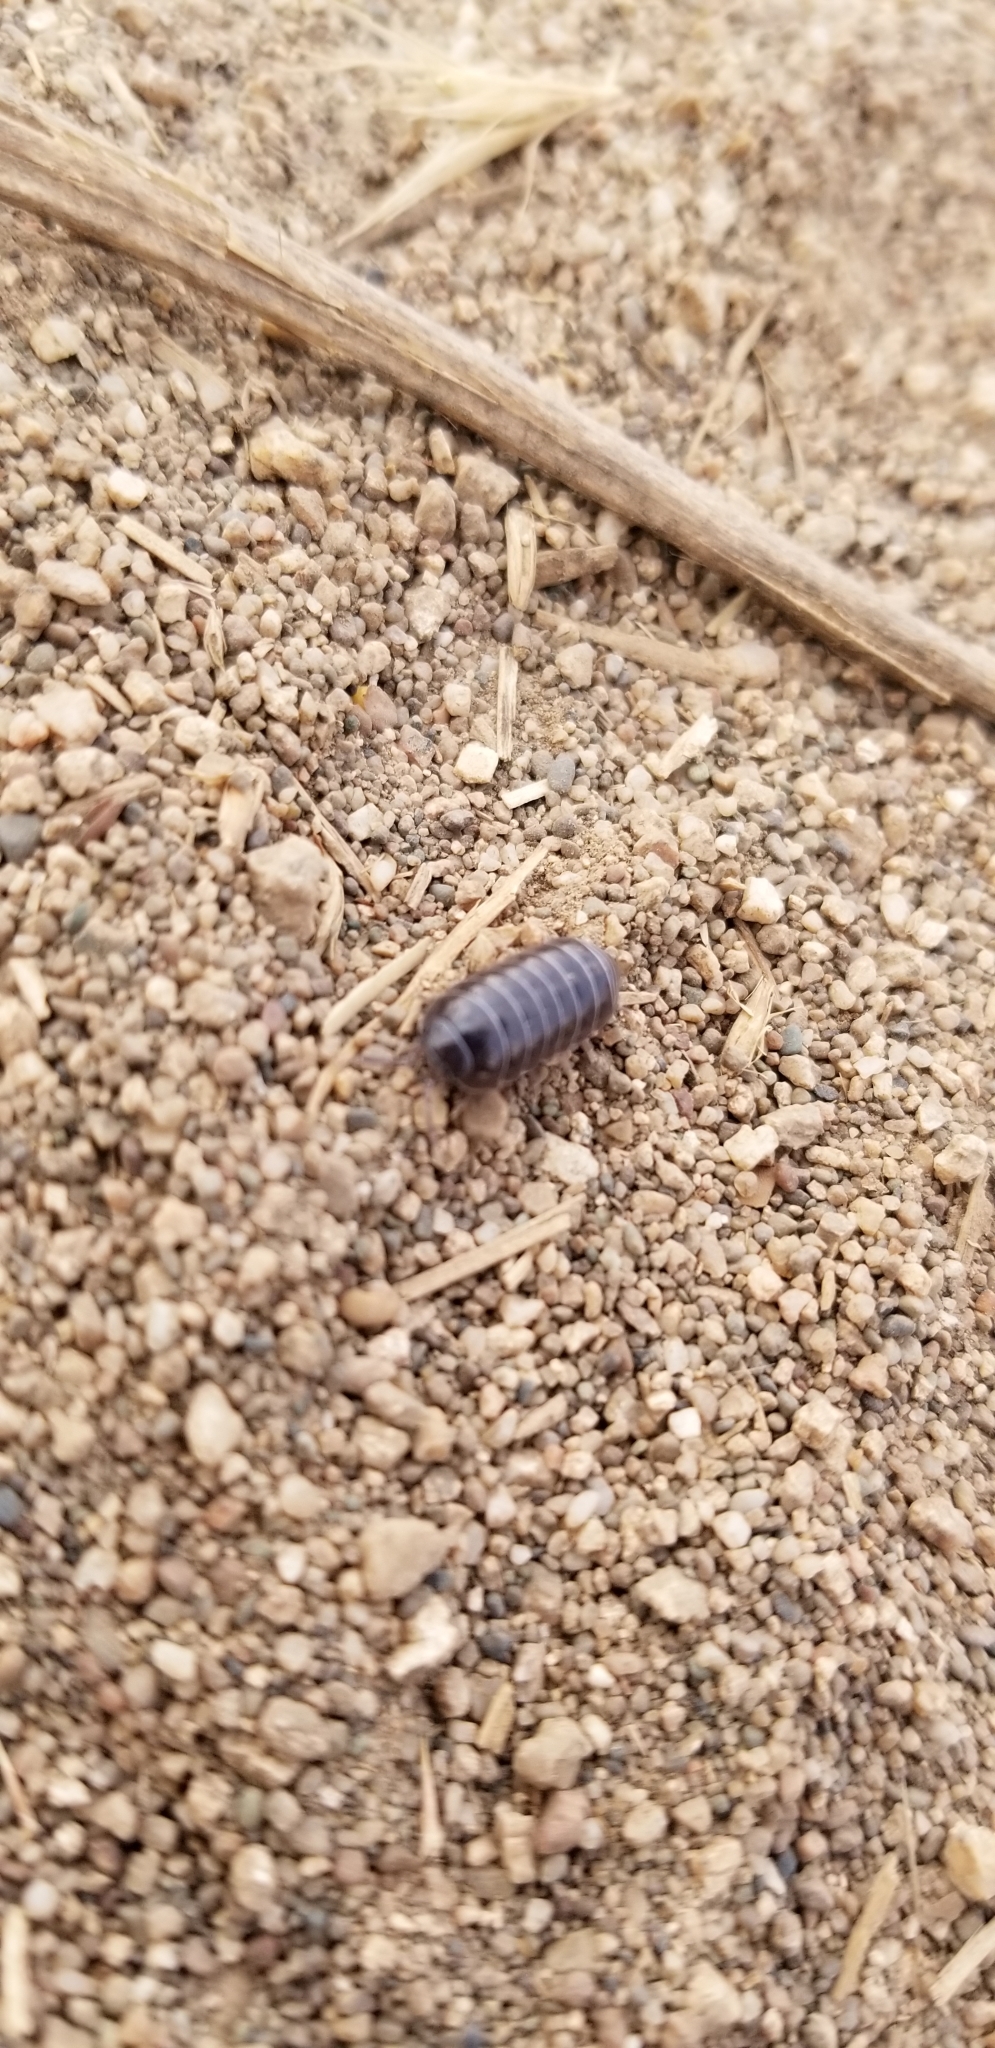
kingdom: Animalia
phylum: Arthropoda
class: Malacostraca
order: Isopoda
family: Armadillidiidae
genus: Armadillidium
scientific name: Armadillidium vulgare
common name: Common pill woodlouse
